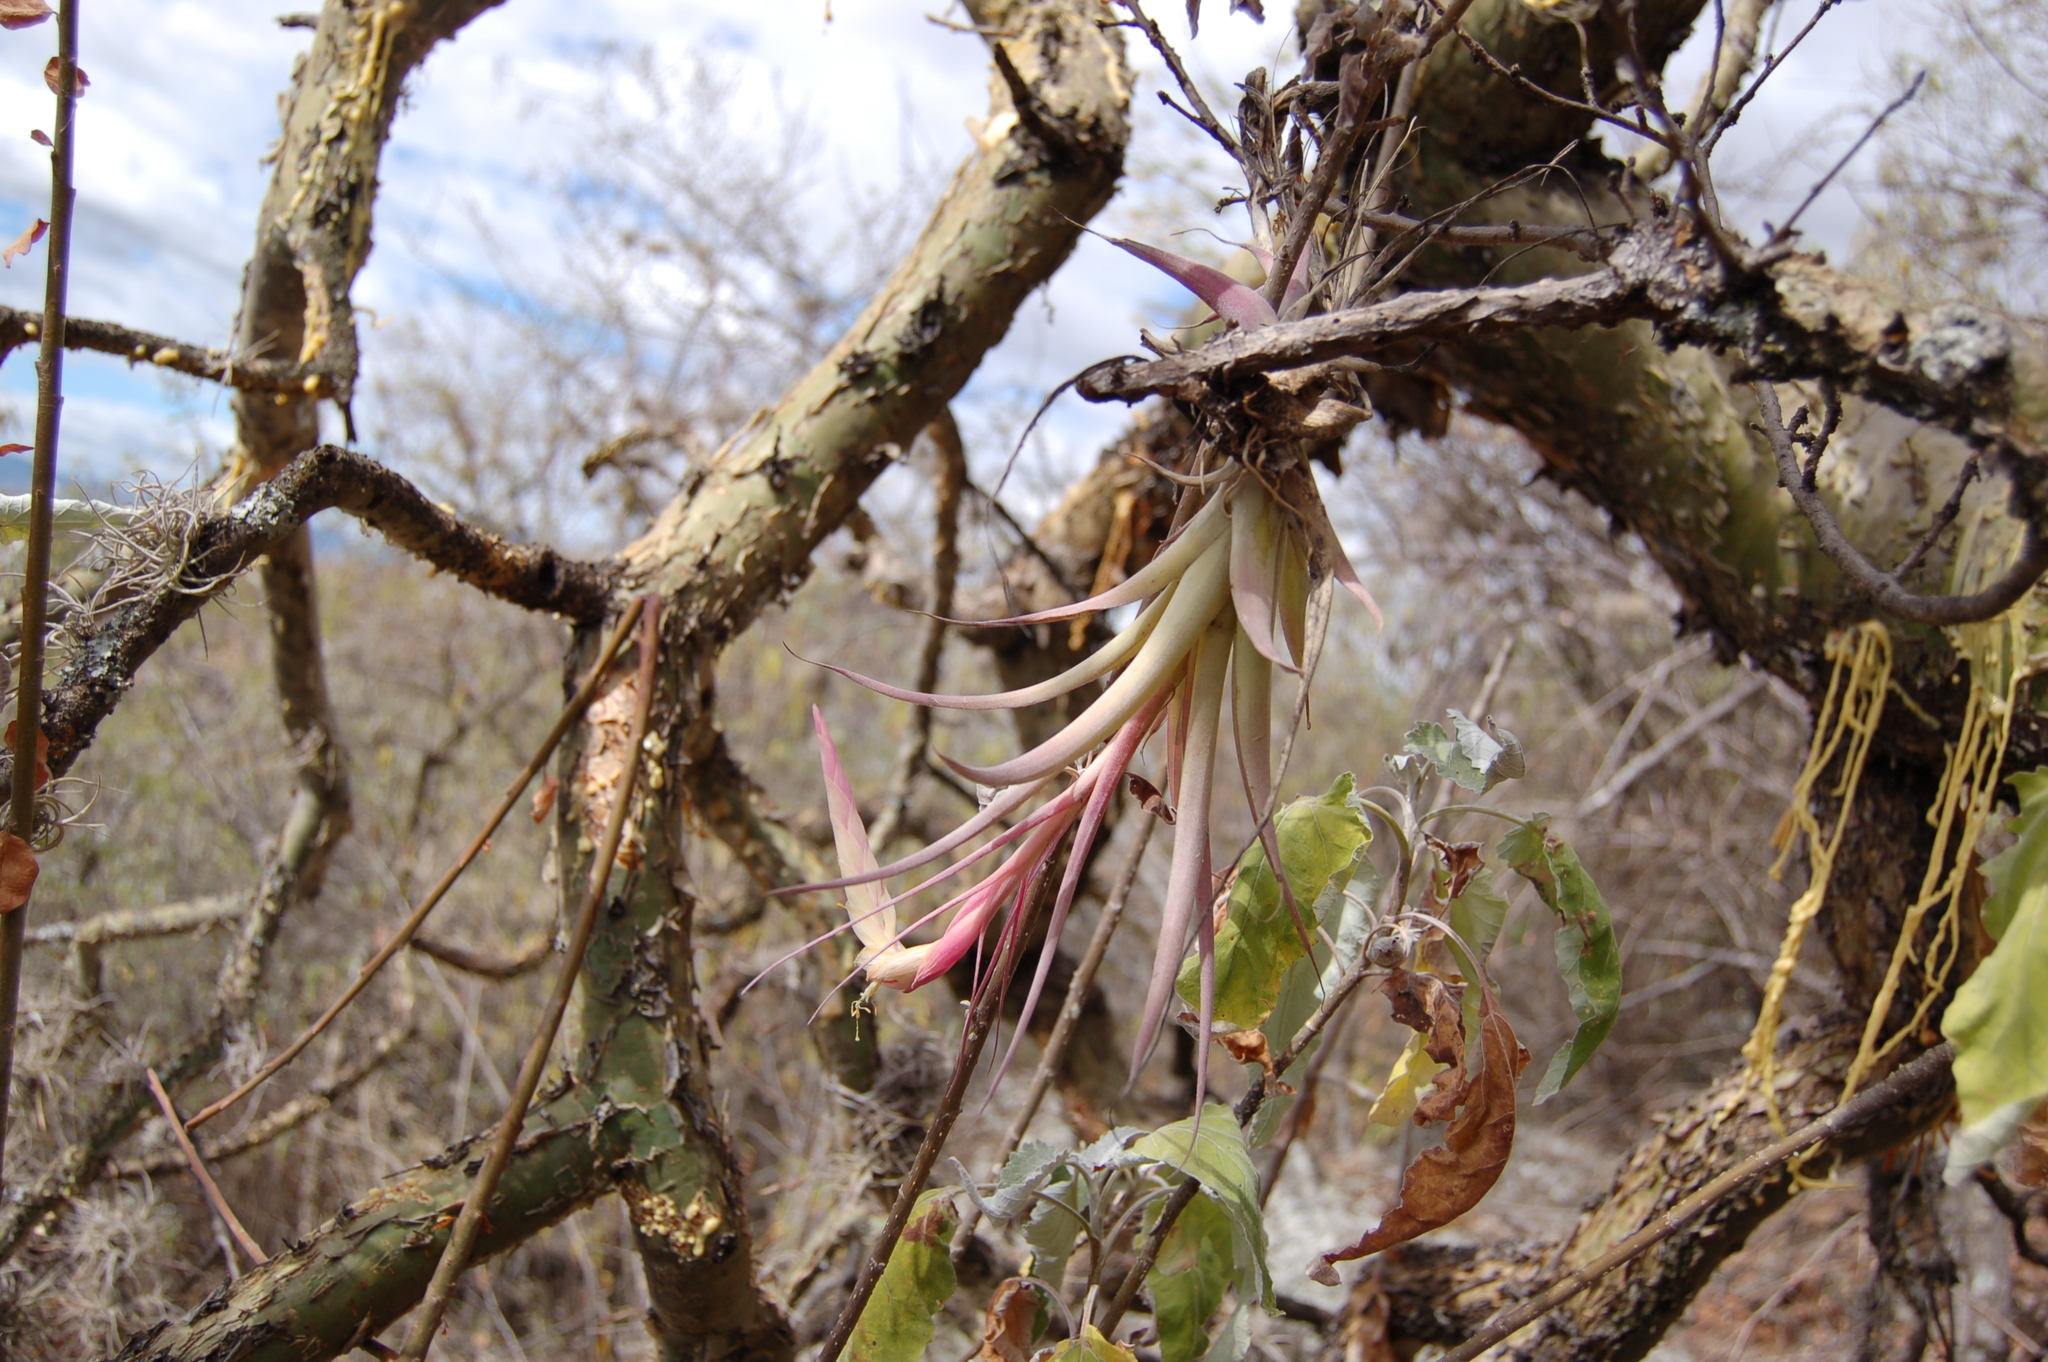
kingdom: Plantae
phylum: Tracheophyta
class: Liliopsida
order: Poales
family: Bromeliaceae
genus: Tillandsia
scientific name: Tillandsia achyrostachys
